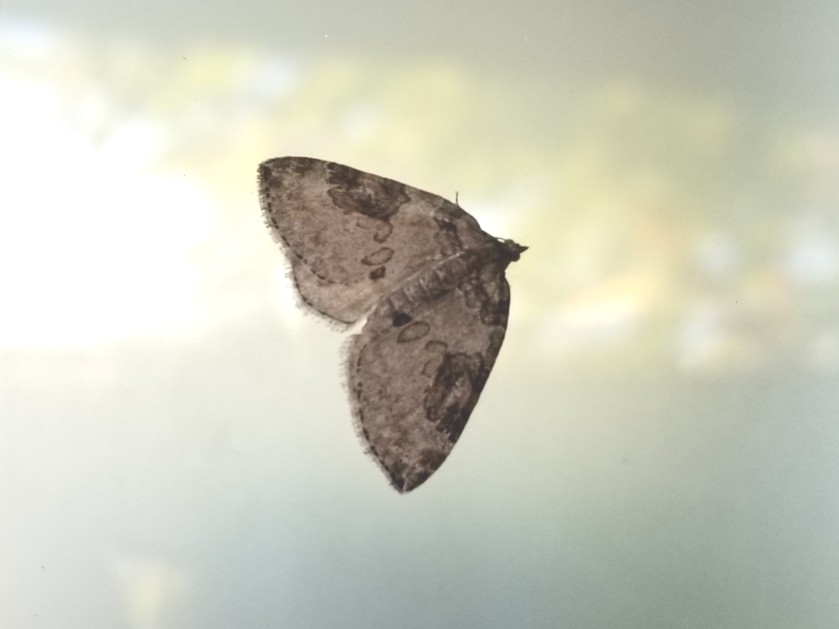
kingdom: Animalia
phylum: Arthropoda
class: Insecta
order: Lepidoptera
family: Geometridae
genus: Plemyria
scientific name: Plemyria georgii
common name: George's carpet moth
